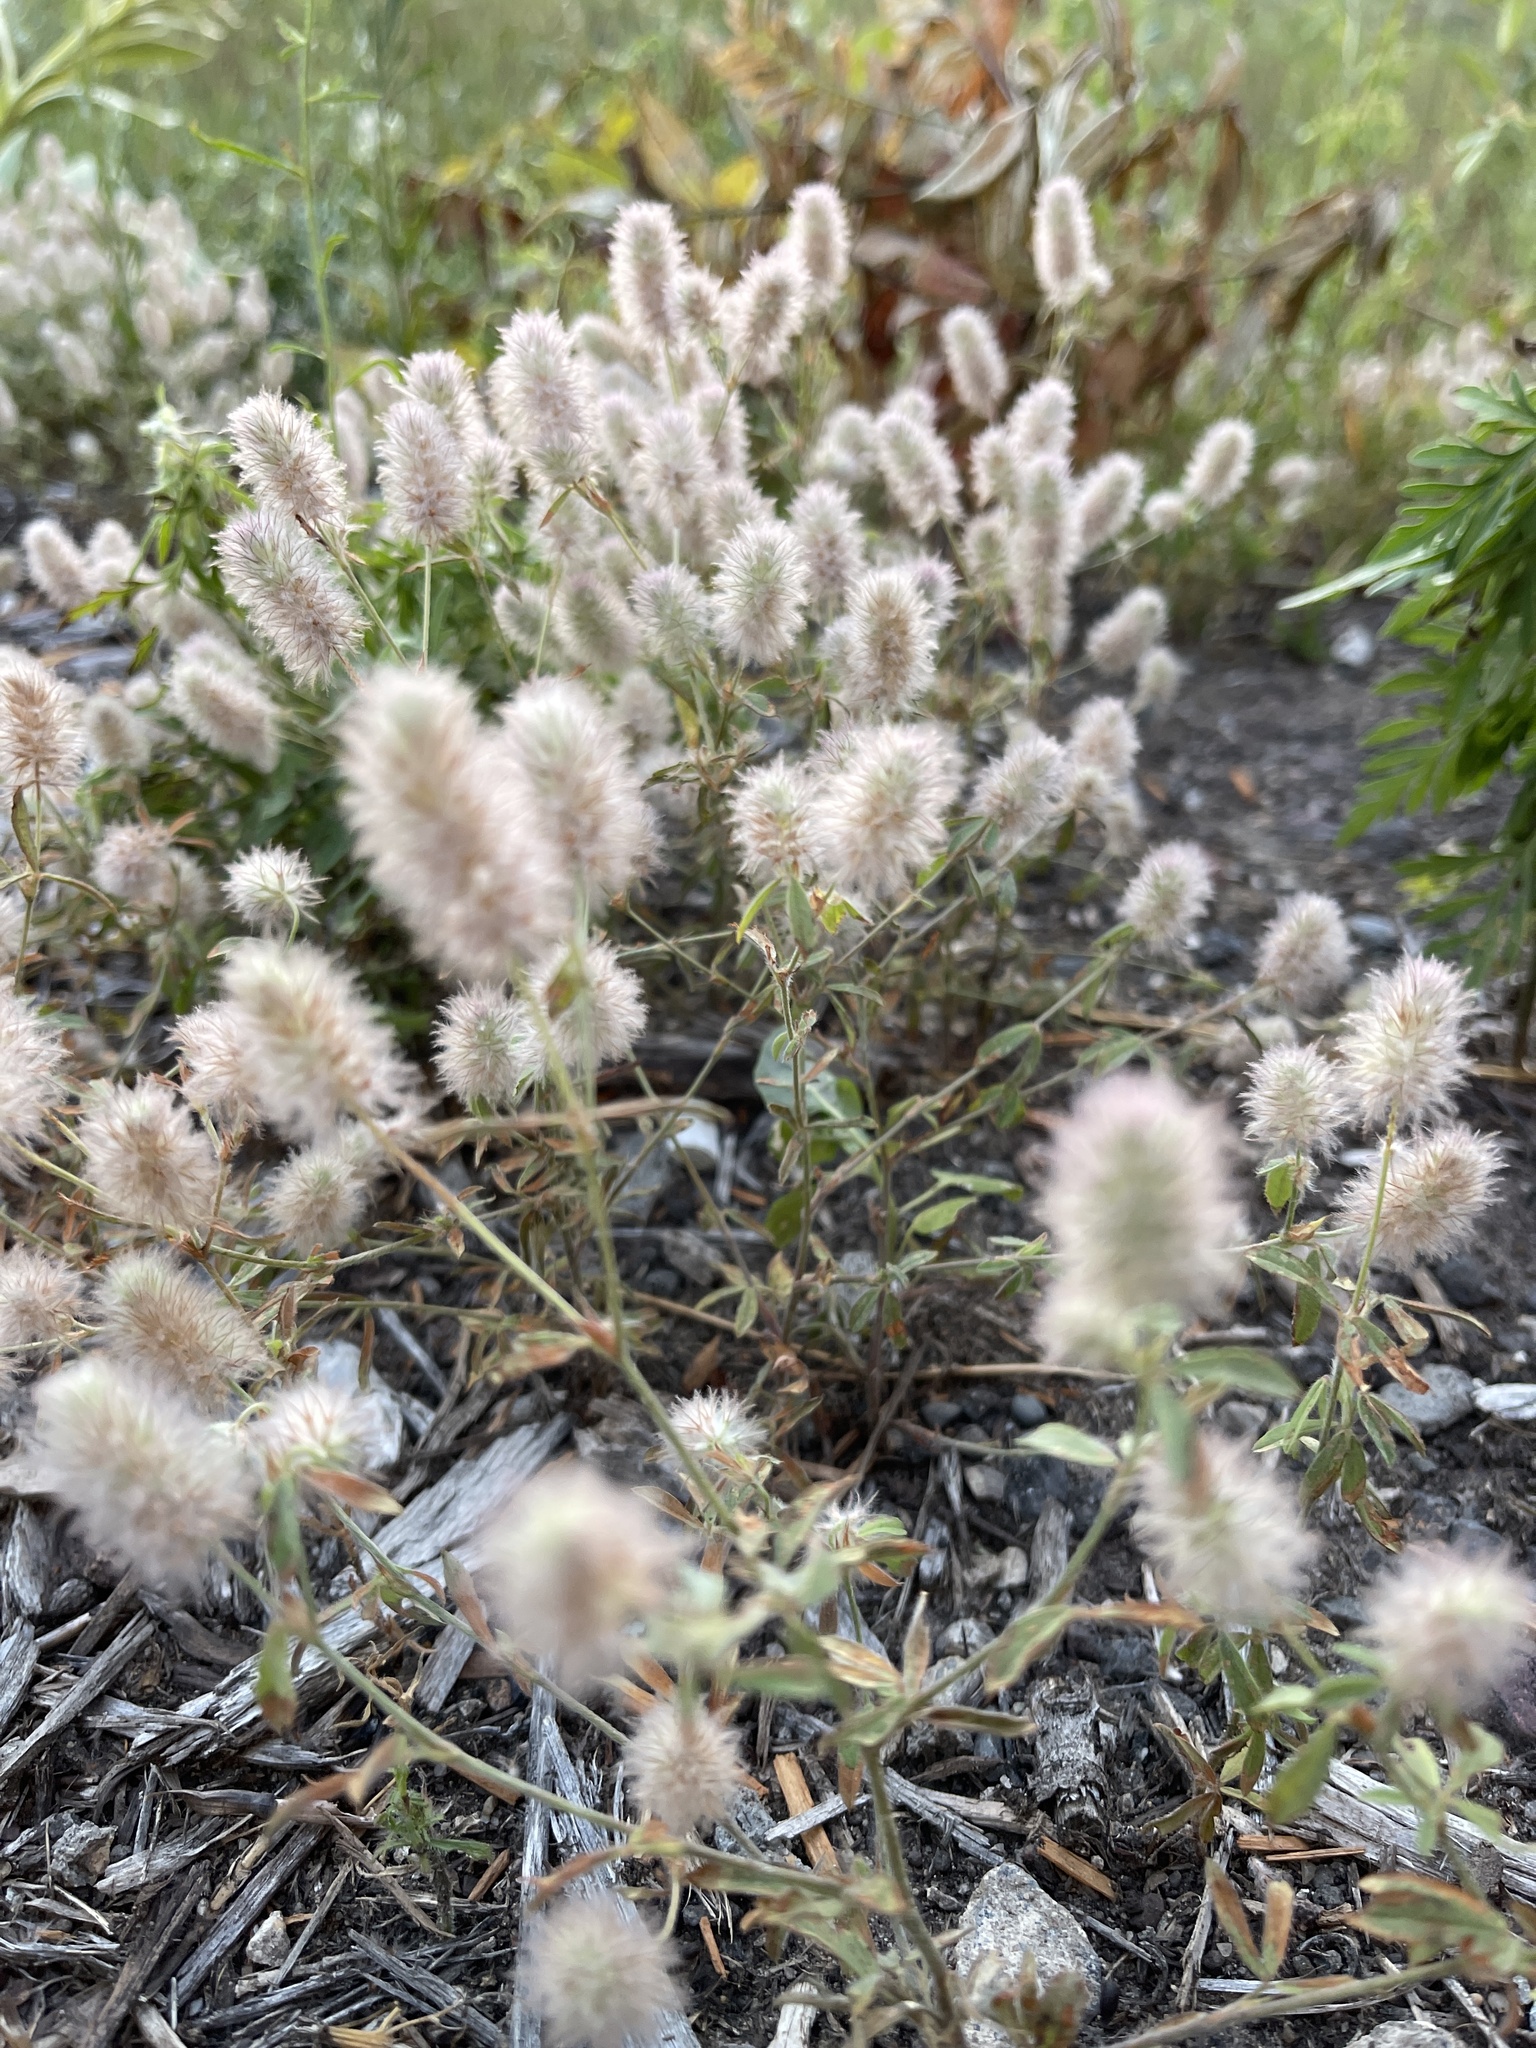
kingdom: Plantae
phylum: Tracheophyta
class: Magnoliopsida
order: Fabales
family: Fabaceae
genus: Trifolium
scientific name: Trifolium arvense
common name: Hare's-foot clover
